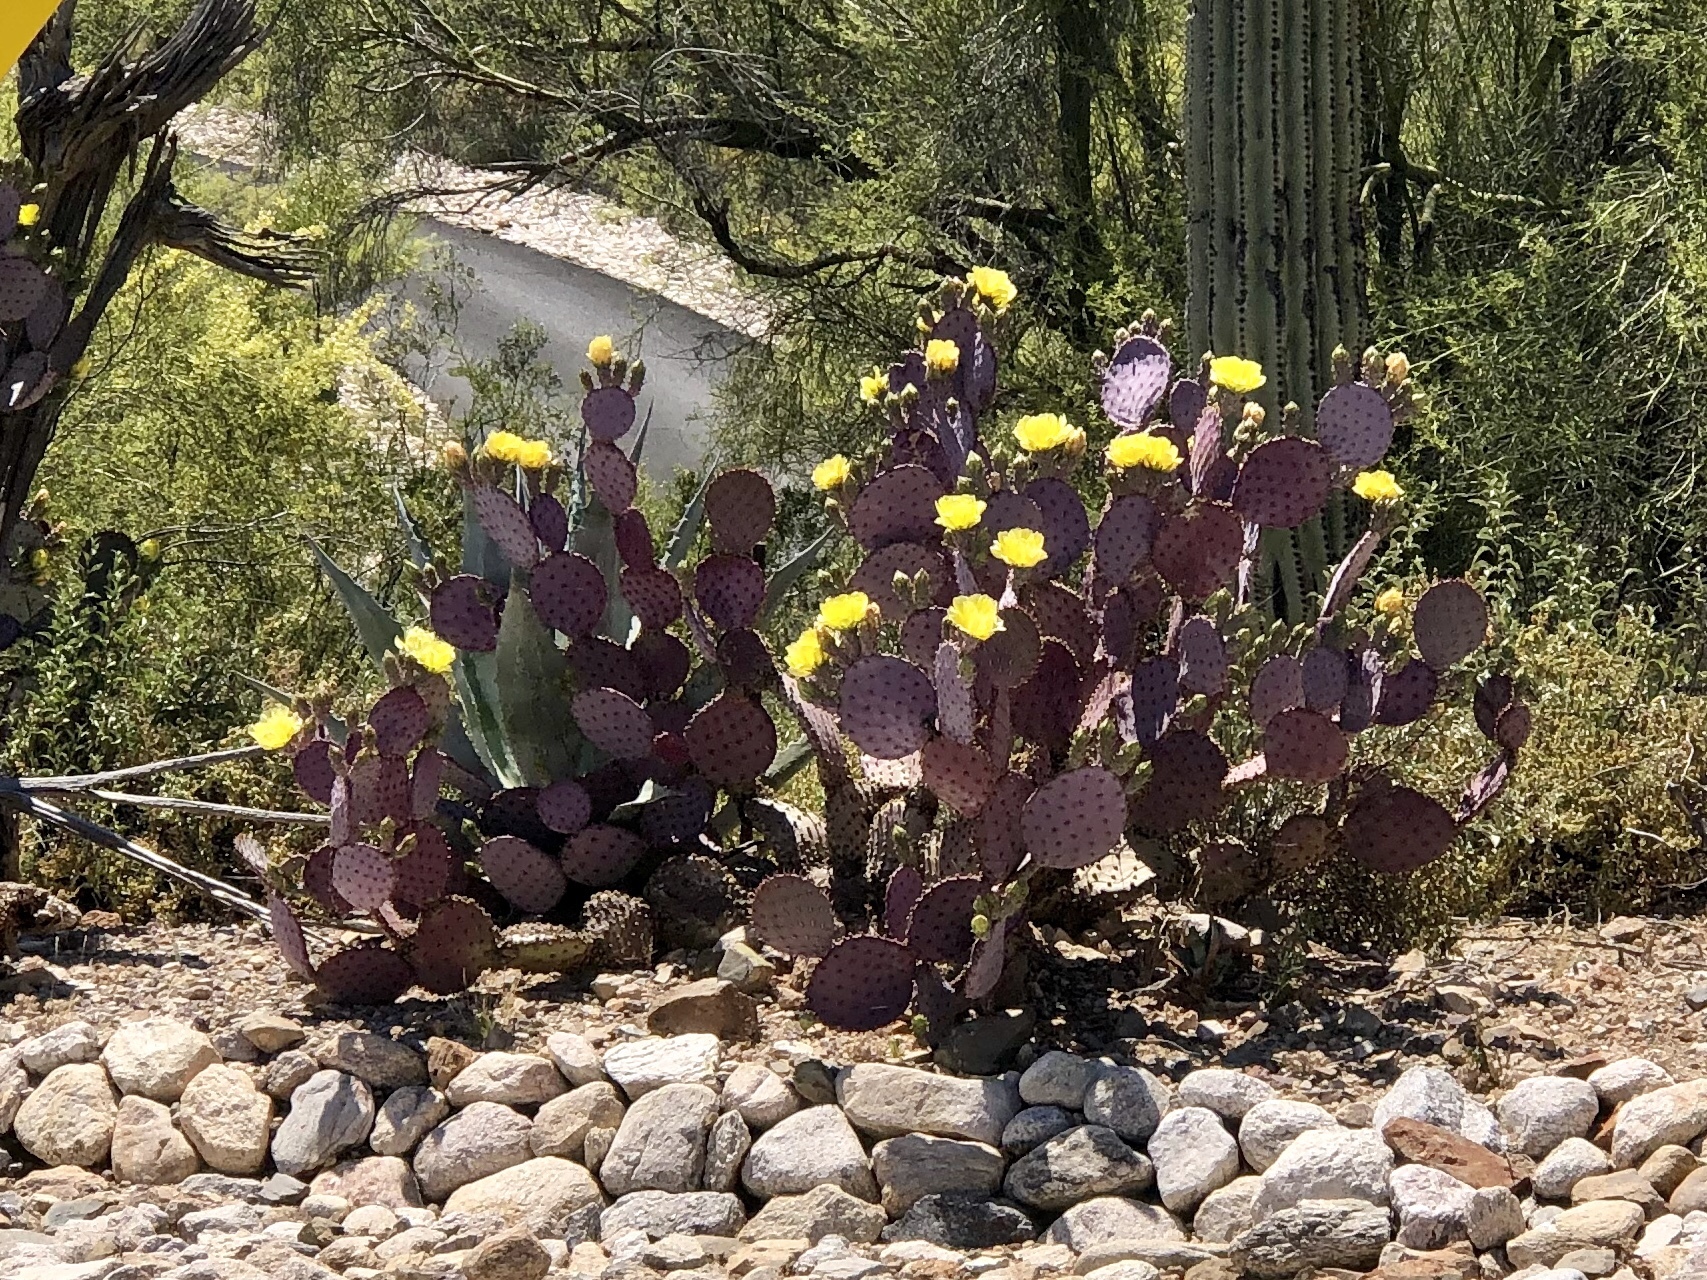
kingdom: Plantae
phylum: Tracheophyta
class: Magnoliopsida
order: Caryophyllales
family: Cactaceae
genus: Opuntia
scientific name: Opuntia gosseliniana
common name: Violet prickly-pear
